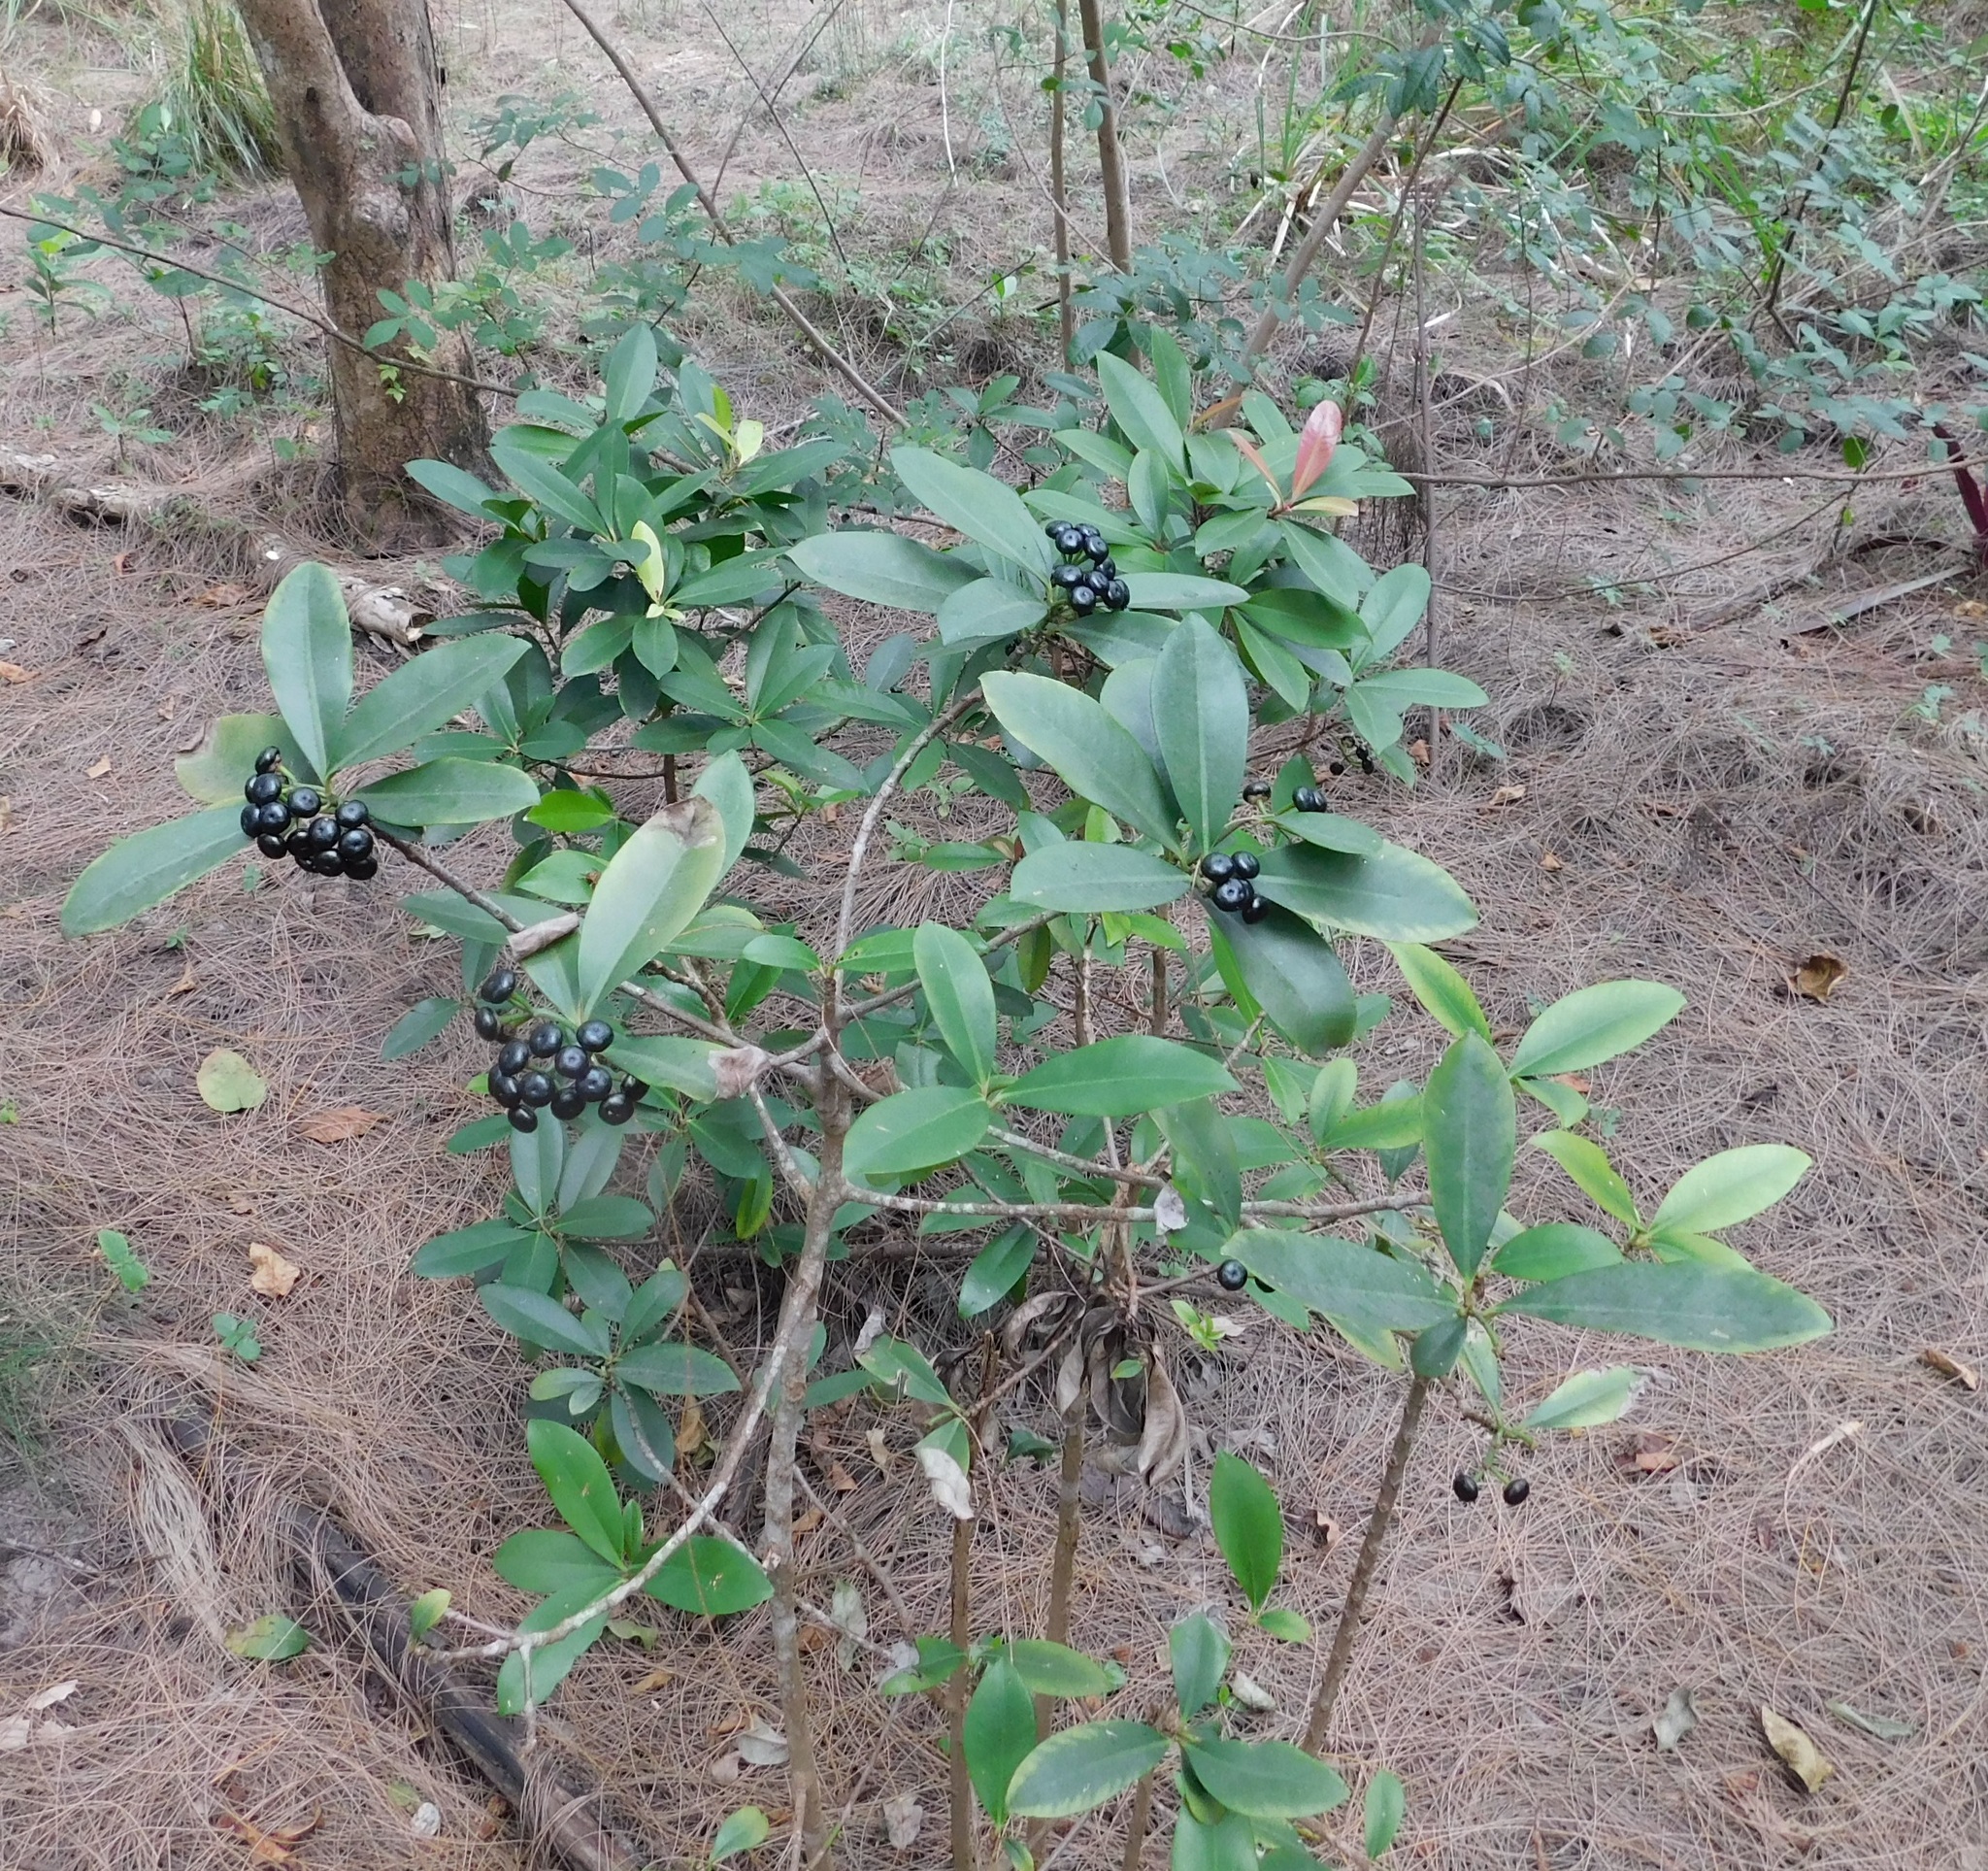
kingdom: Plantae
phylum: Tracheophyta
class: Magnoliopsida
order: Ericales
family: Primulaceae
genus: Ardisia
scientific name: Ardisia elliptica
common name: Shoebutton
